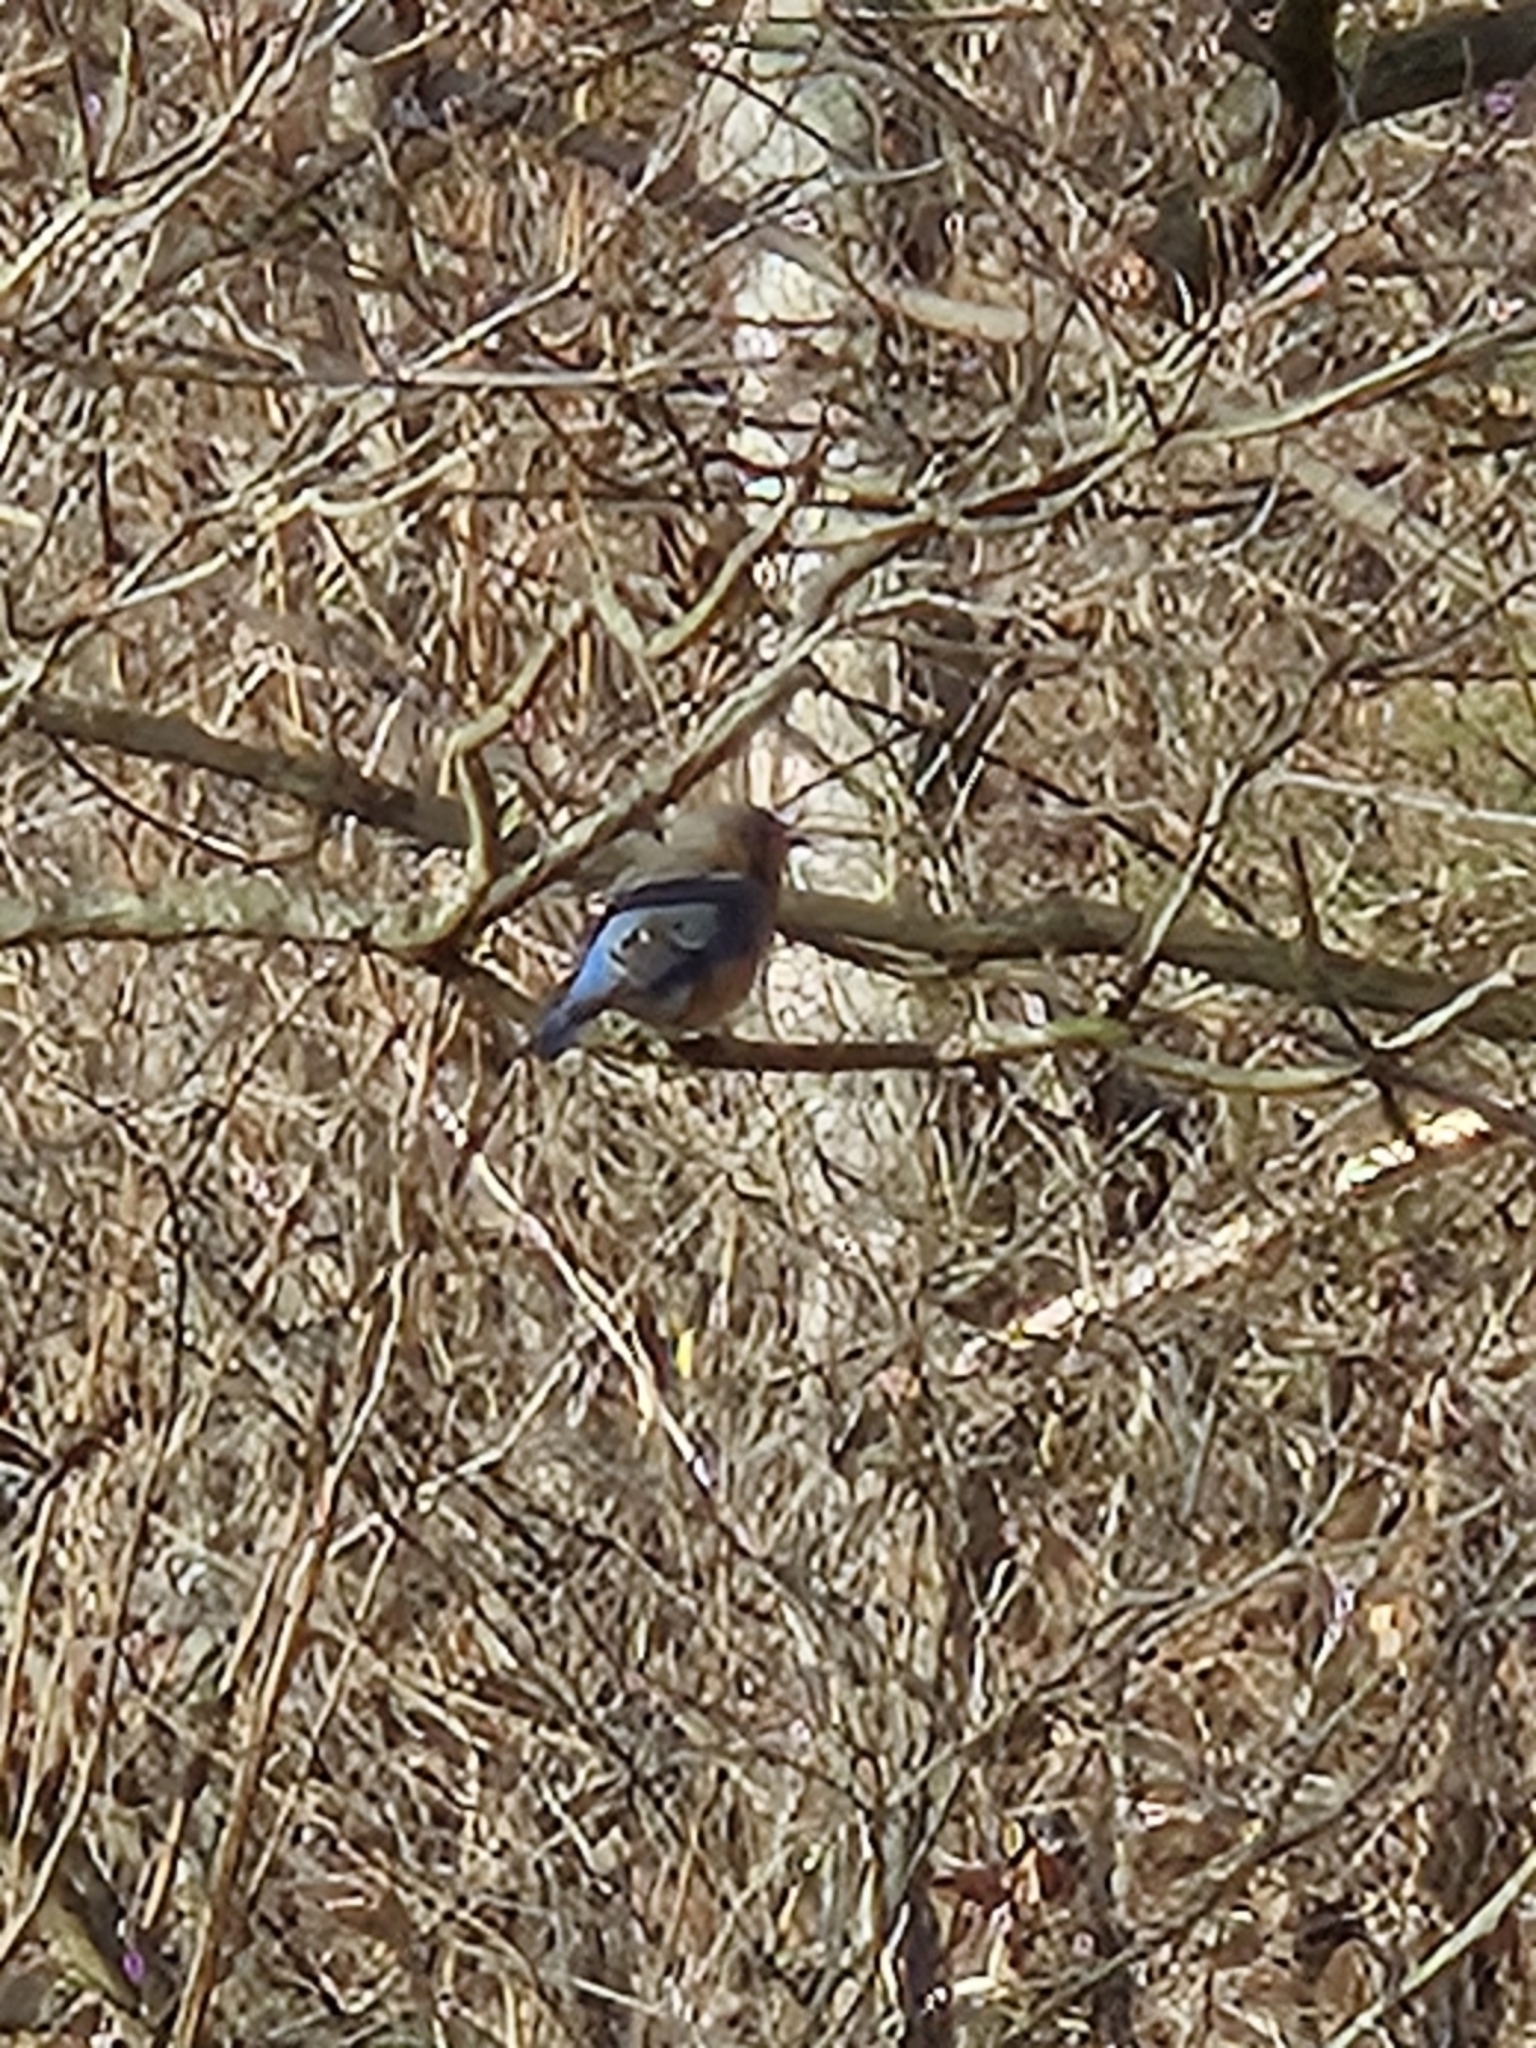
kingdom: Animalia
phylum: Chordata
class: Aves
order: Passeriformes
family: Turdidae
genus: Sialia
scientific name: Sialia sialis
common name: Eastern bluebird
